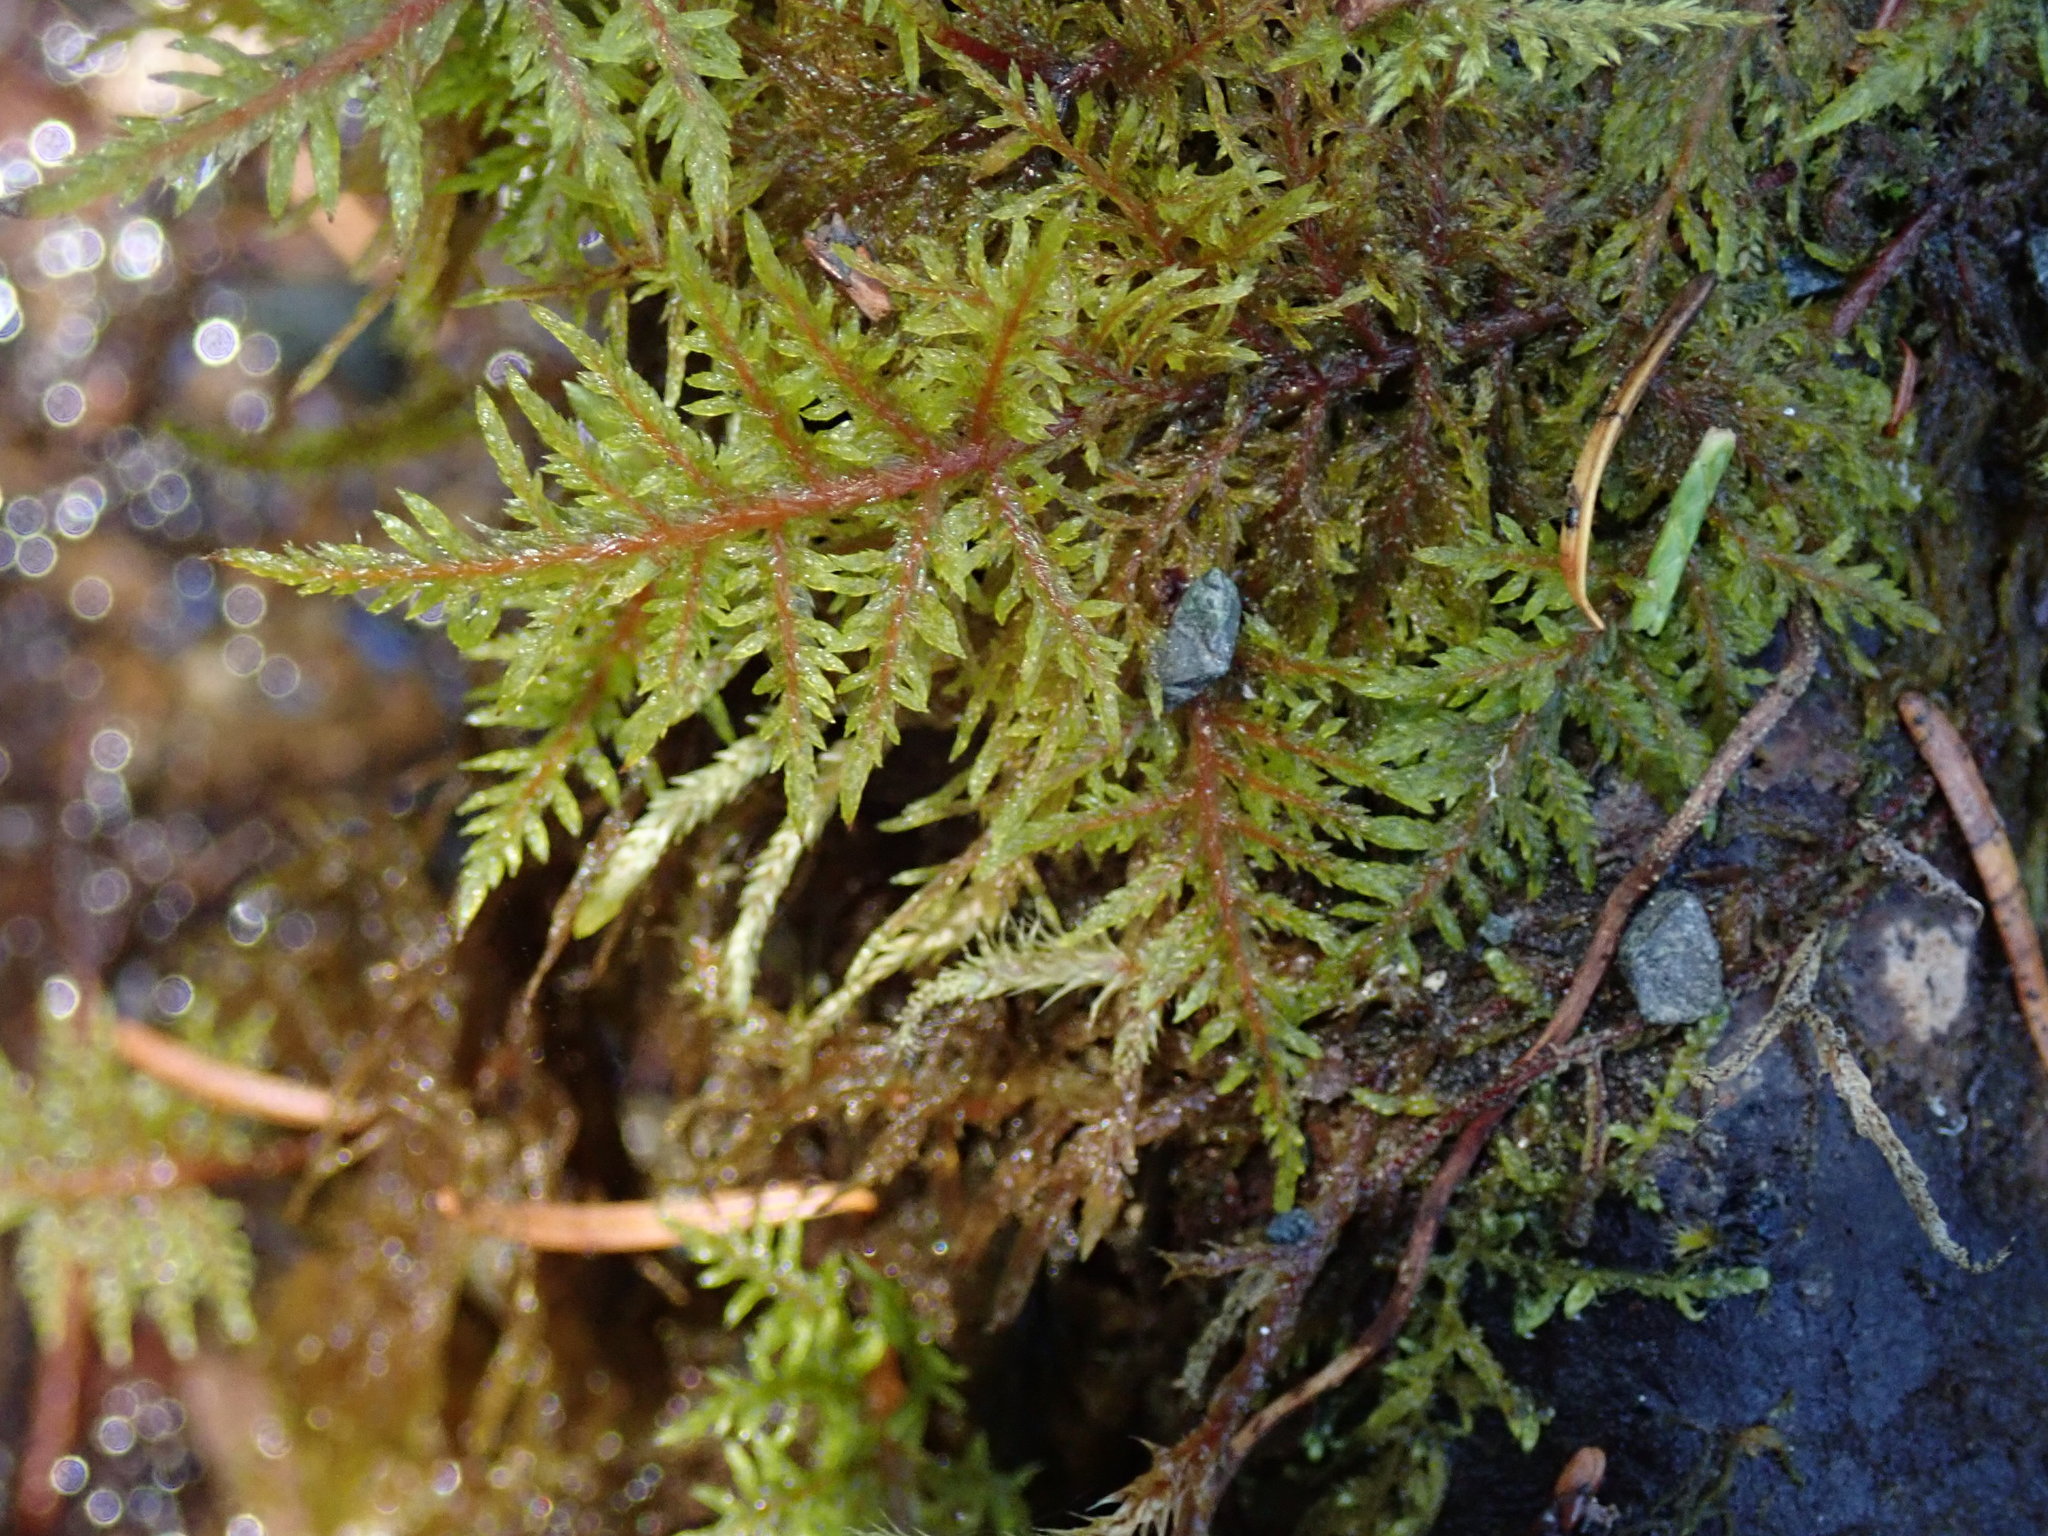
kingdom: Plantae
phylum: Bryophyta
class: Bryopsida
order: Hypnales
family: Hylocomiaceae
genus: Hylocomium
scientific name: Hylocomium splendens
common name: Stairstep moss
